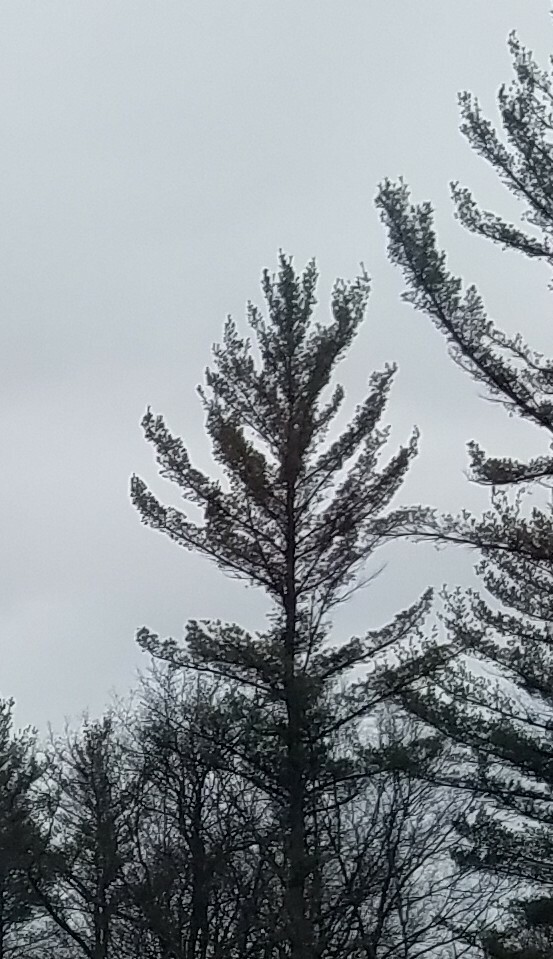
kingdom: Plantae
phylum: Tracheophyta
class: Pinopsida
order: Pinales
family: Pinaceae
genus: Pinus
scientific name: Pinus strobus
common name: Weymouth pine
